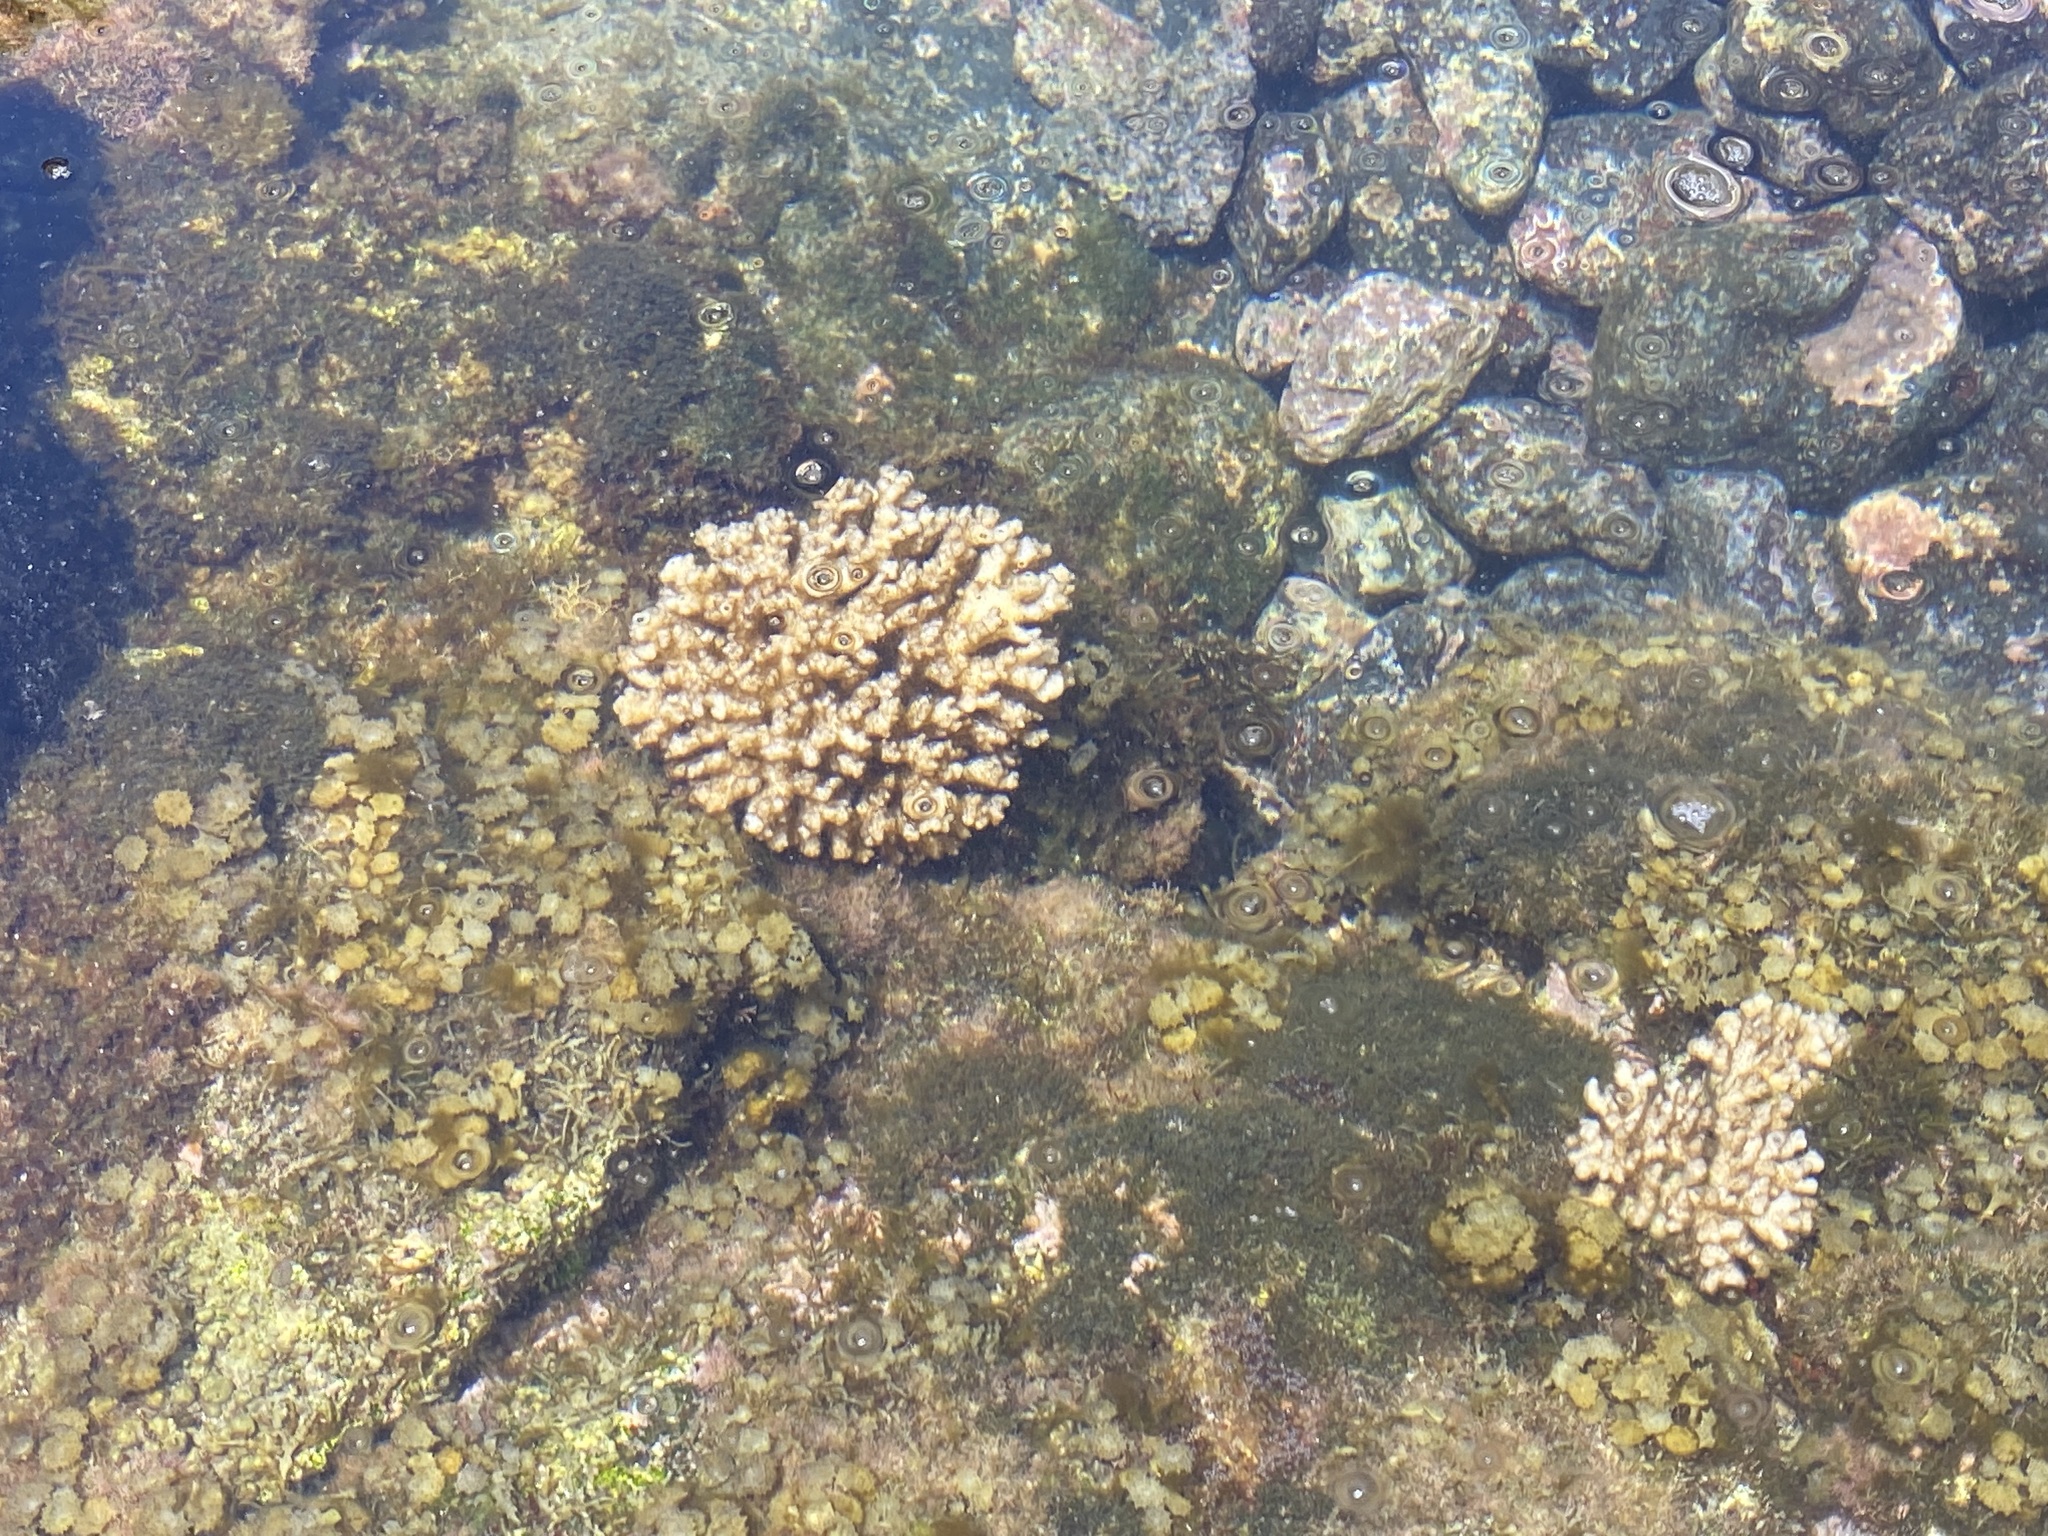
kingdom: Animalia
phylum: Cnidaria
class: Anthozoa
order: Scleractinia
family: Pocilloporidae
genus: Pocillopora
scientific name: Pocillopora damicornis
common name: Cauliflower coral
